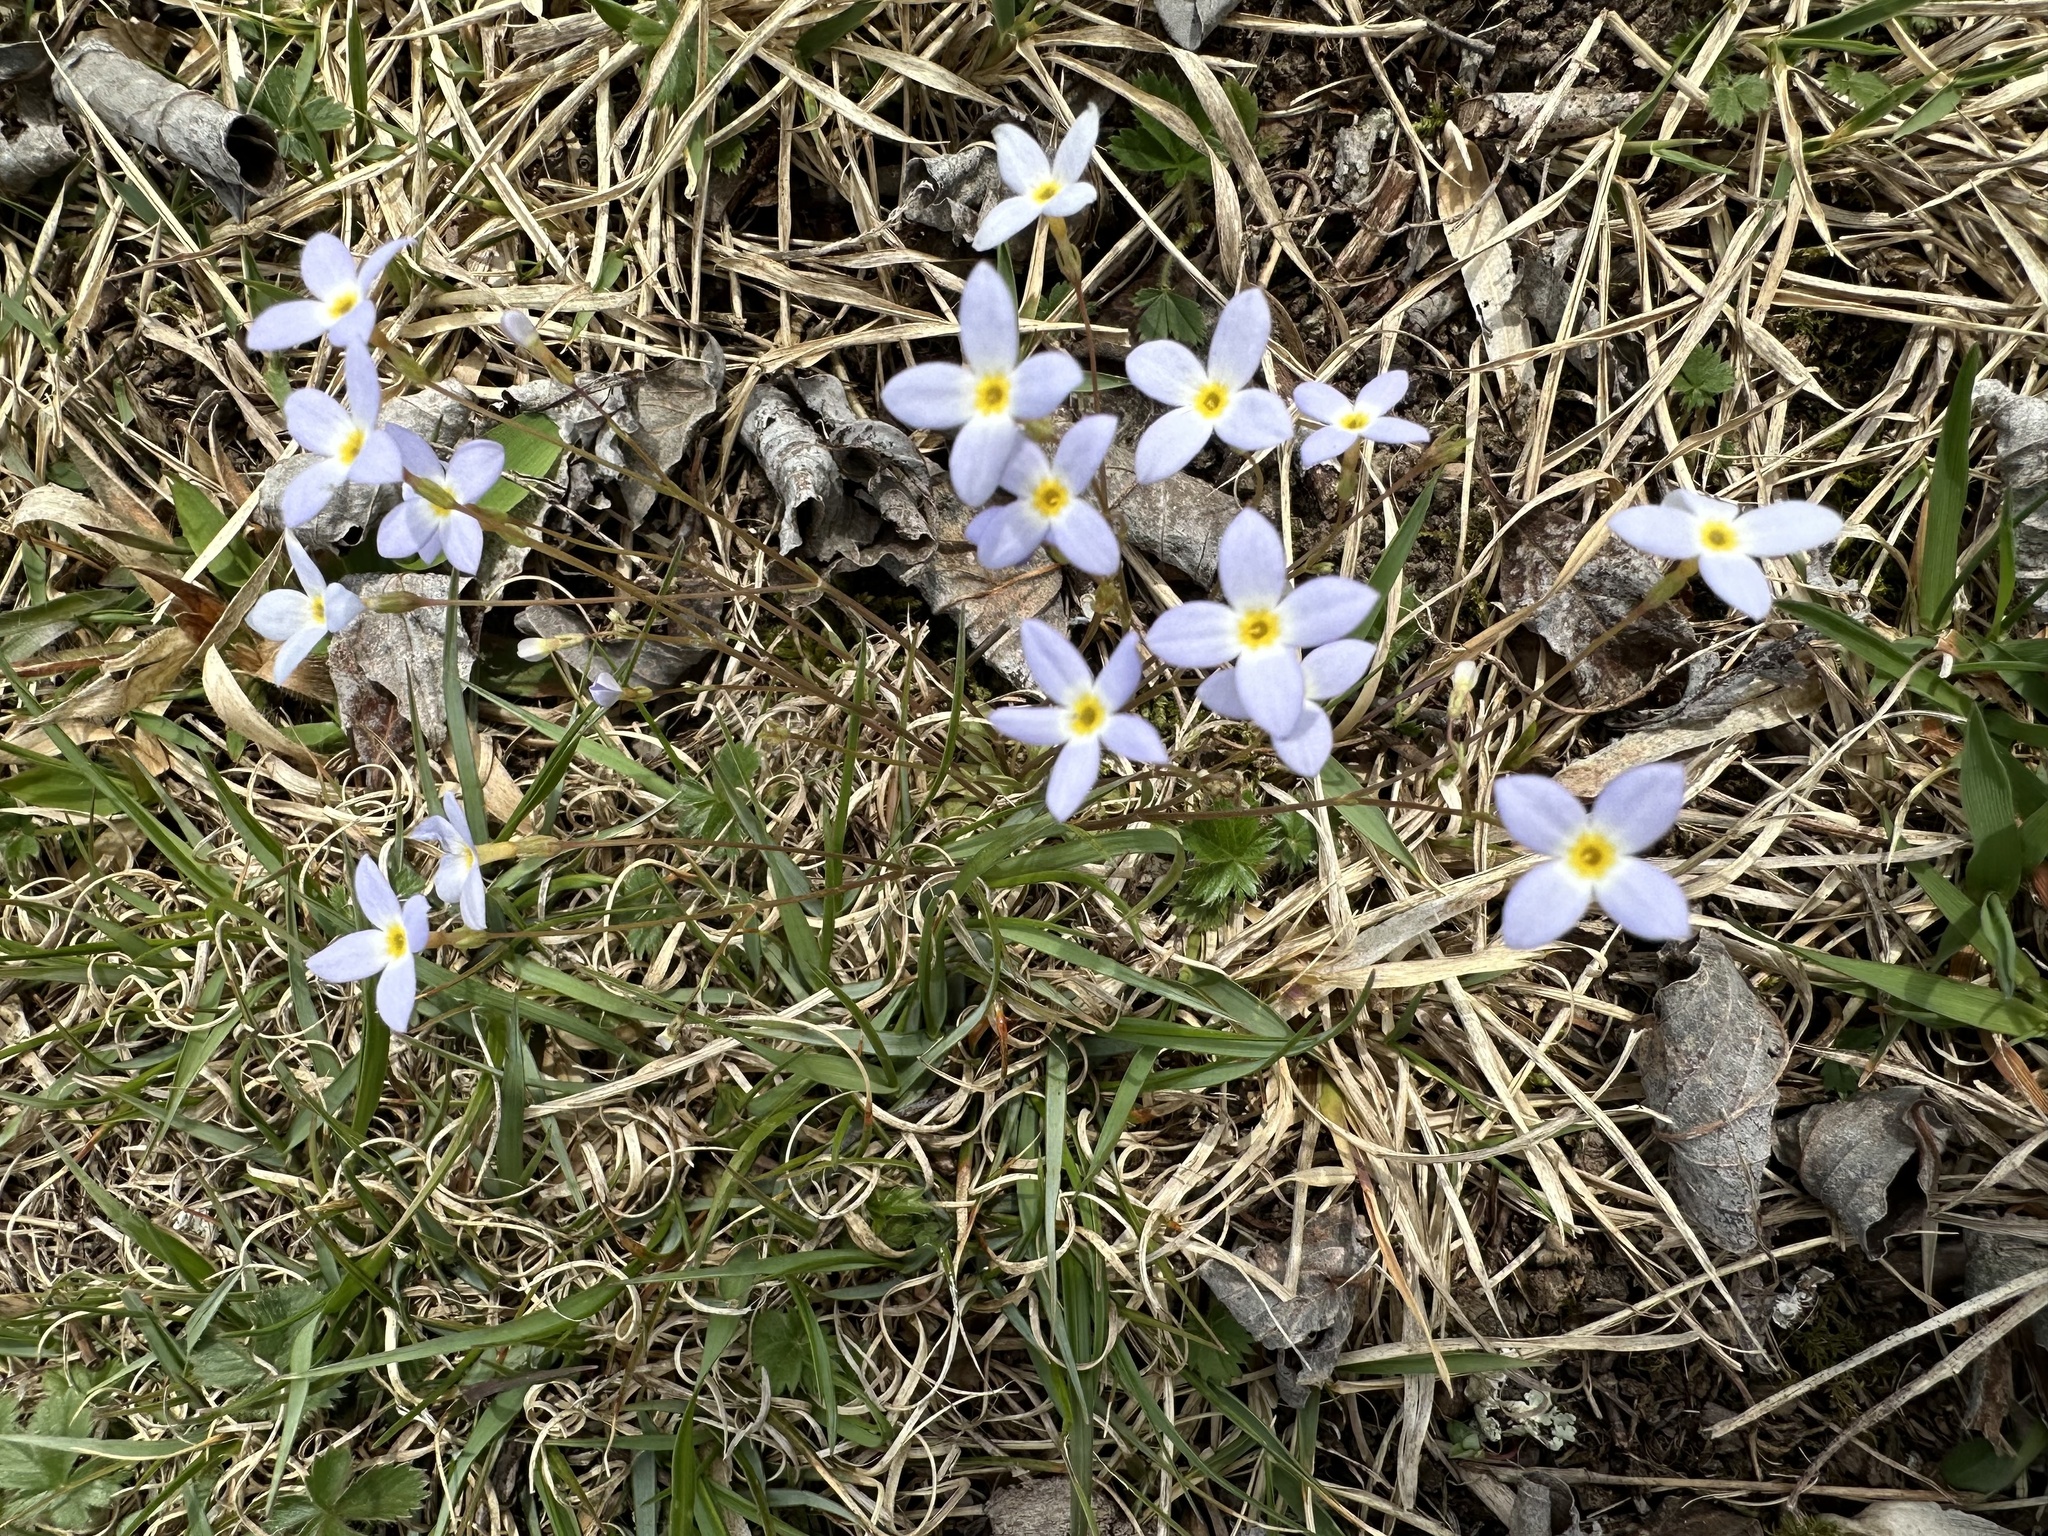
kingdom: Plantae
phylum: Tracheophyta
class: Magnoliopsida
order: Gentianales
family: Rubiaceae
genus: Houstonia
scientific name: Houstonia caerulea
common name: Bluets
